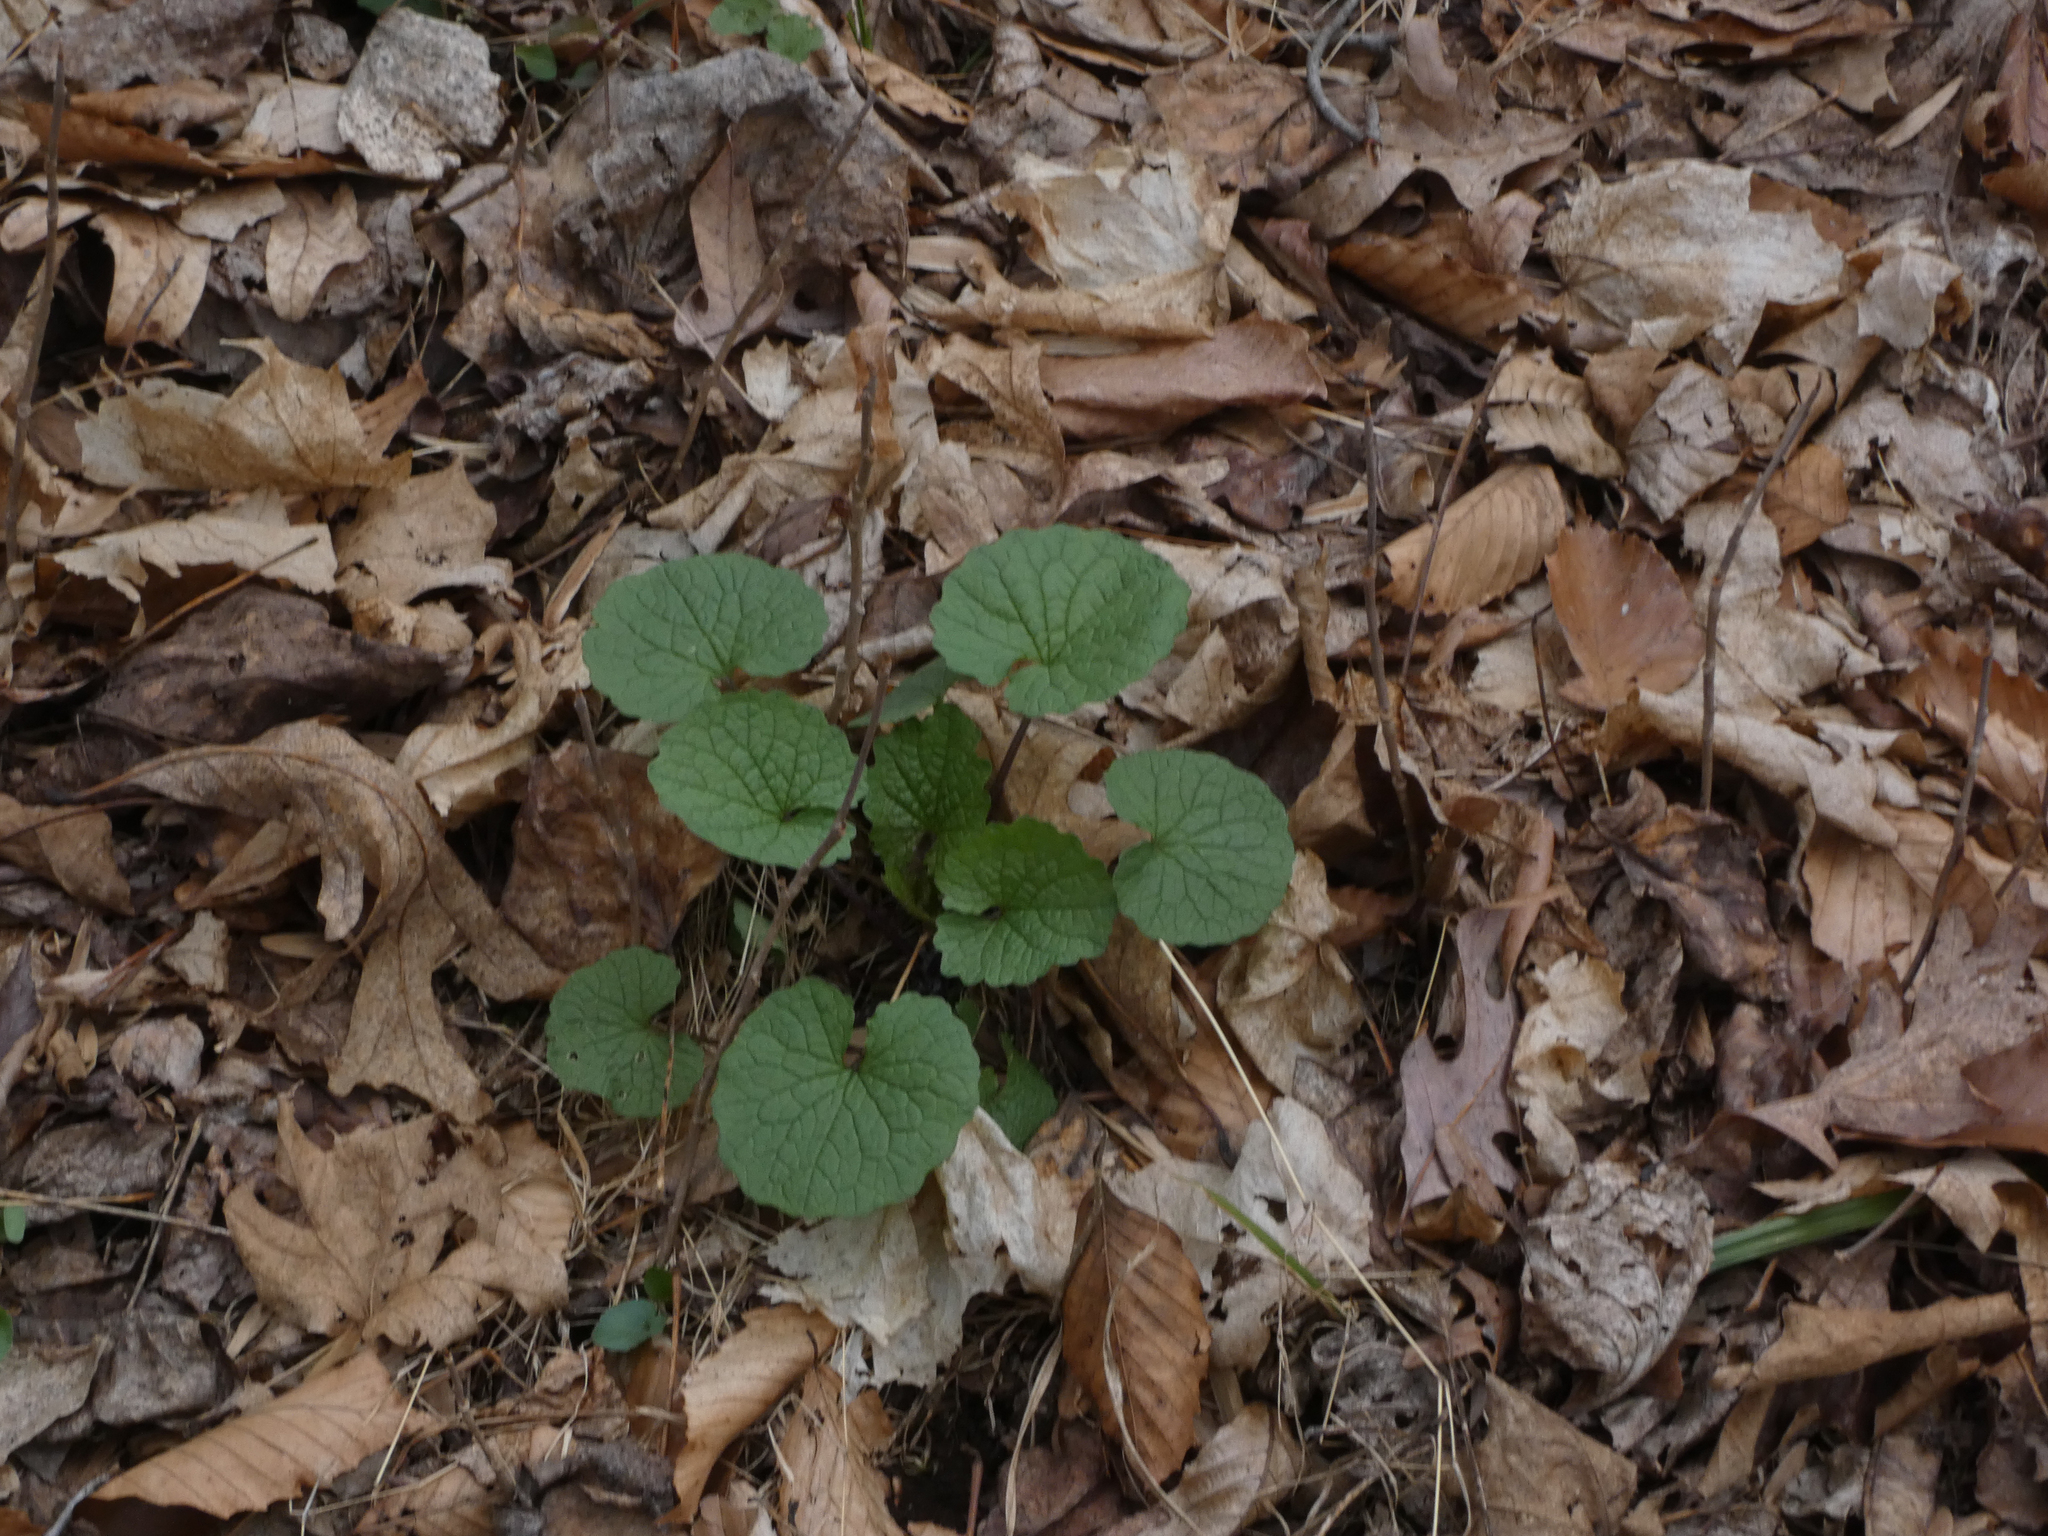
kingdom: Plantae
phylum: Tracheophyta
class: Magnoliopsida
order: Brassicales
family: Brassicaceae
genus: Alliaria
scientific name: Alliaria petiolata
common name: Garlic mustard
